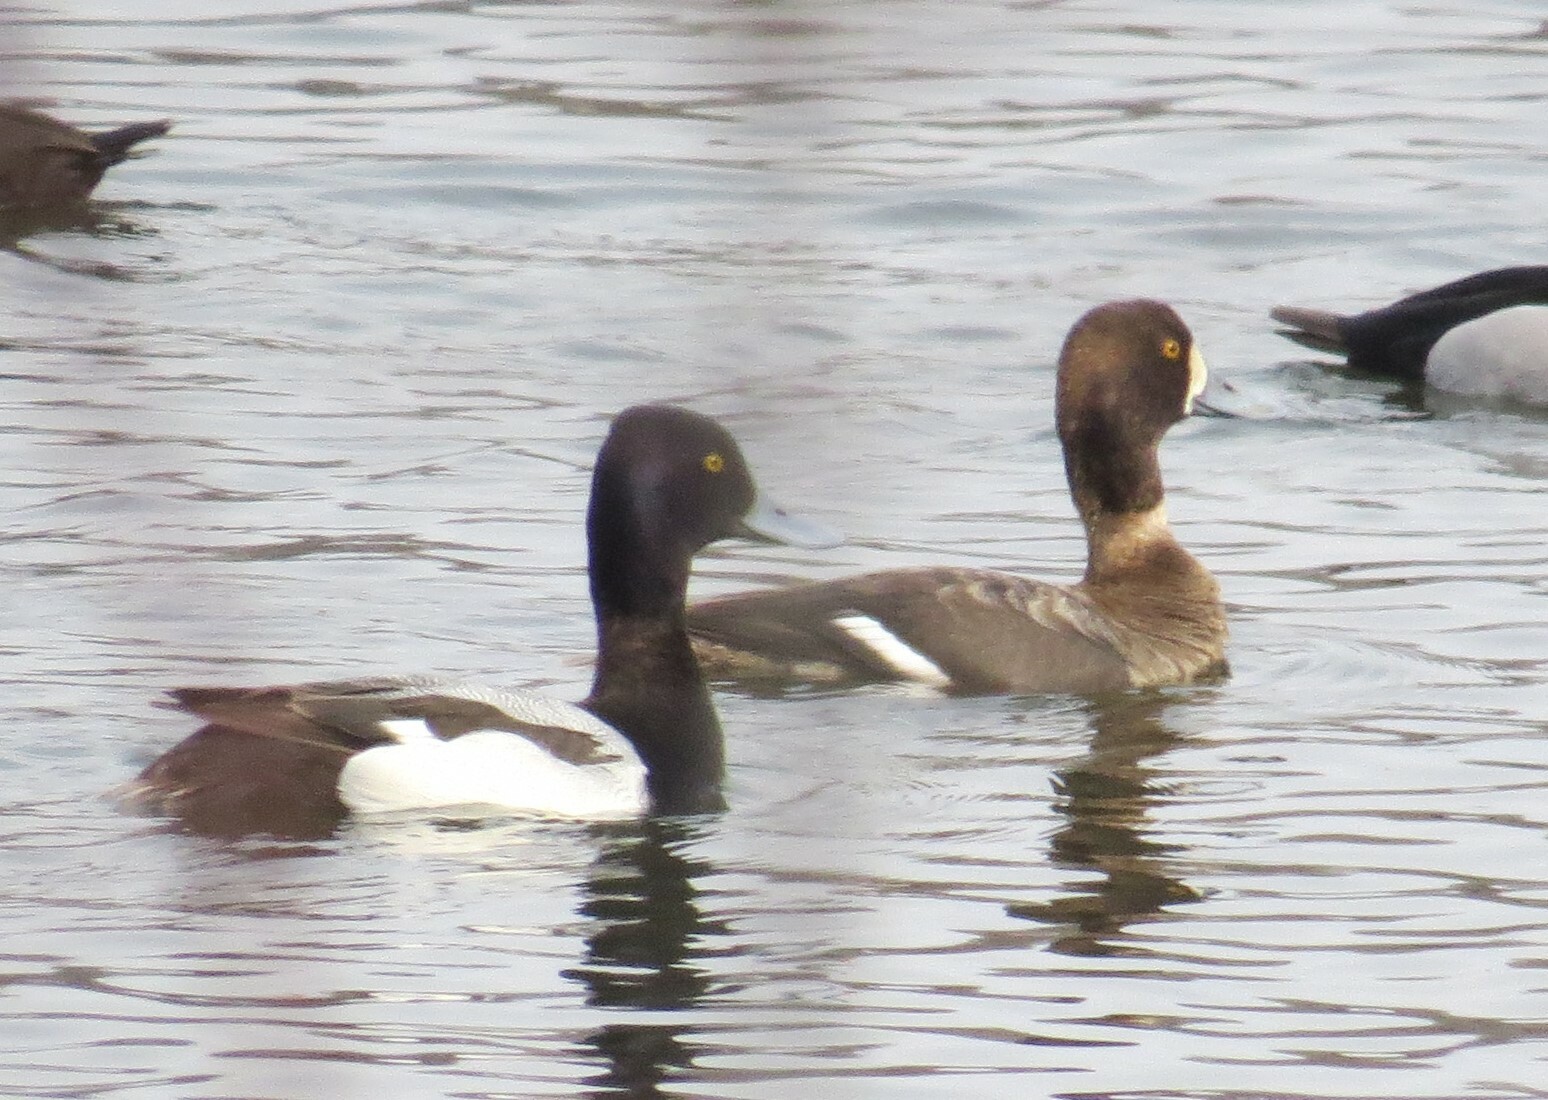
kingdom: Animalia
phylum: Chordata
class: Aves
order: Anseriformes
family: Anatidae
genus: Aythya
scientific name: Aythya affinis
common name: Lesser scaup
